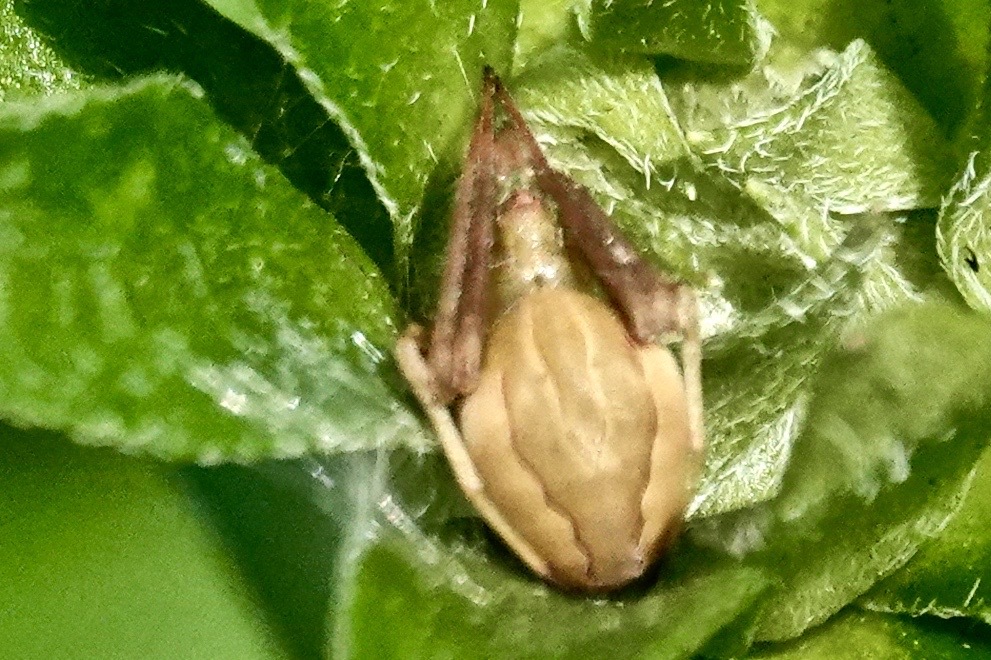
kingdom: Animalia
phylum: Arthropoda
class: Arachnida
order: Araneae
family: Araneidae
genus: Acacesia
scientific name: Acacesia hamata
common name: Orb weavers
